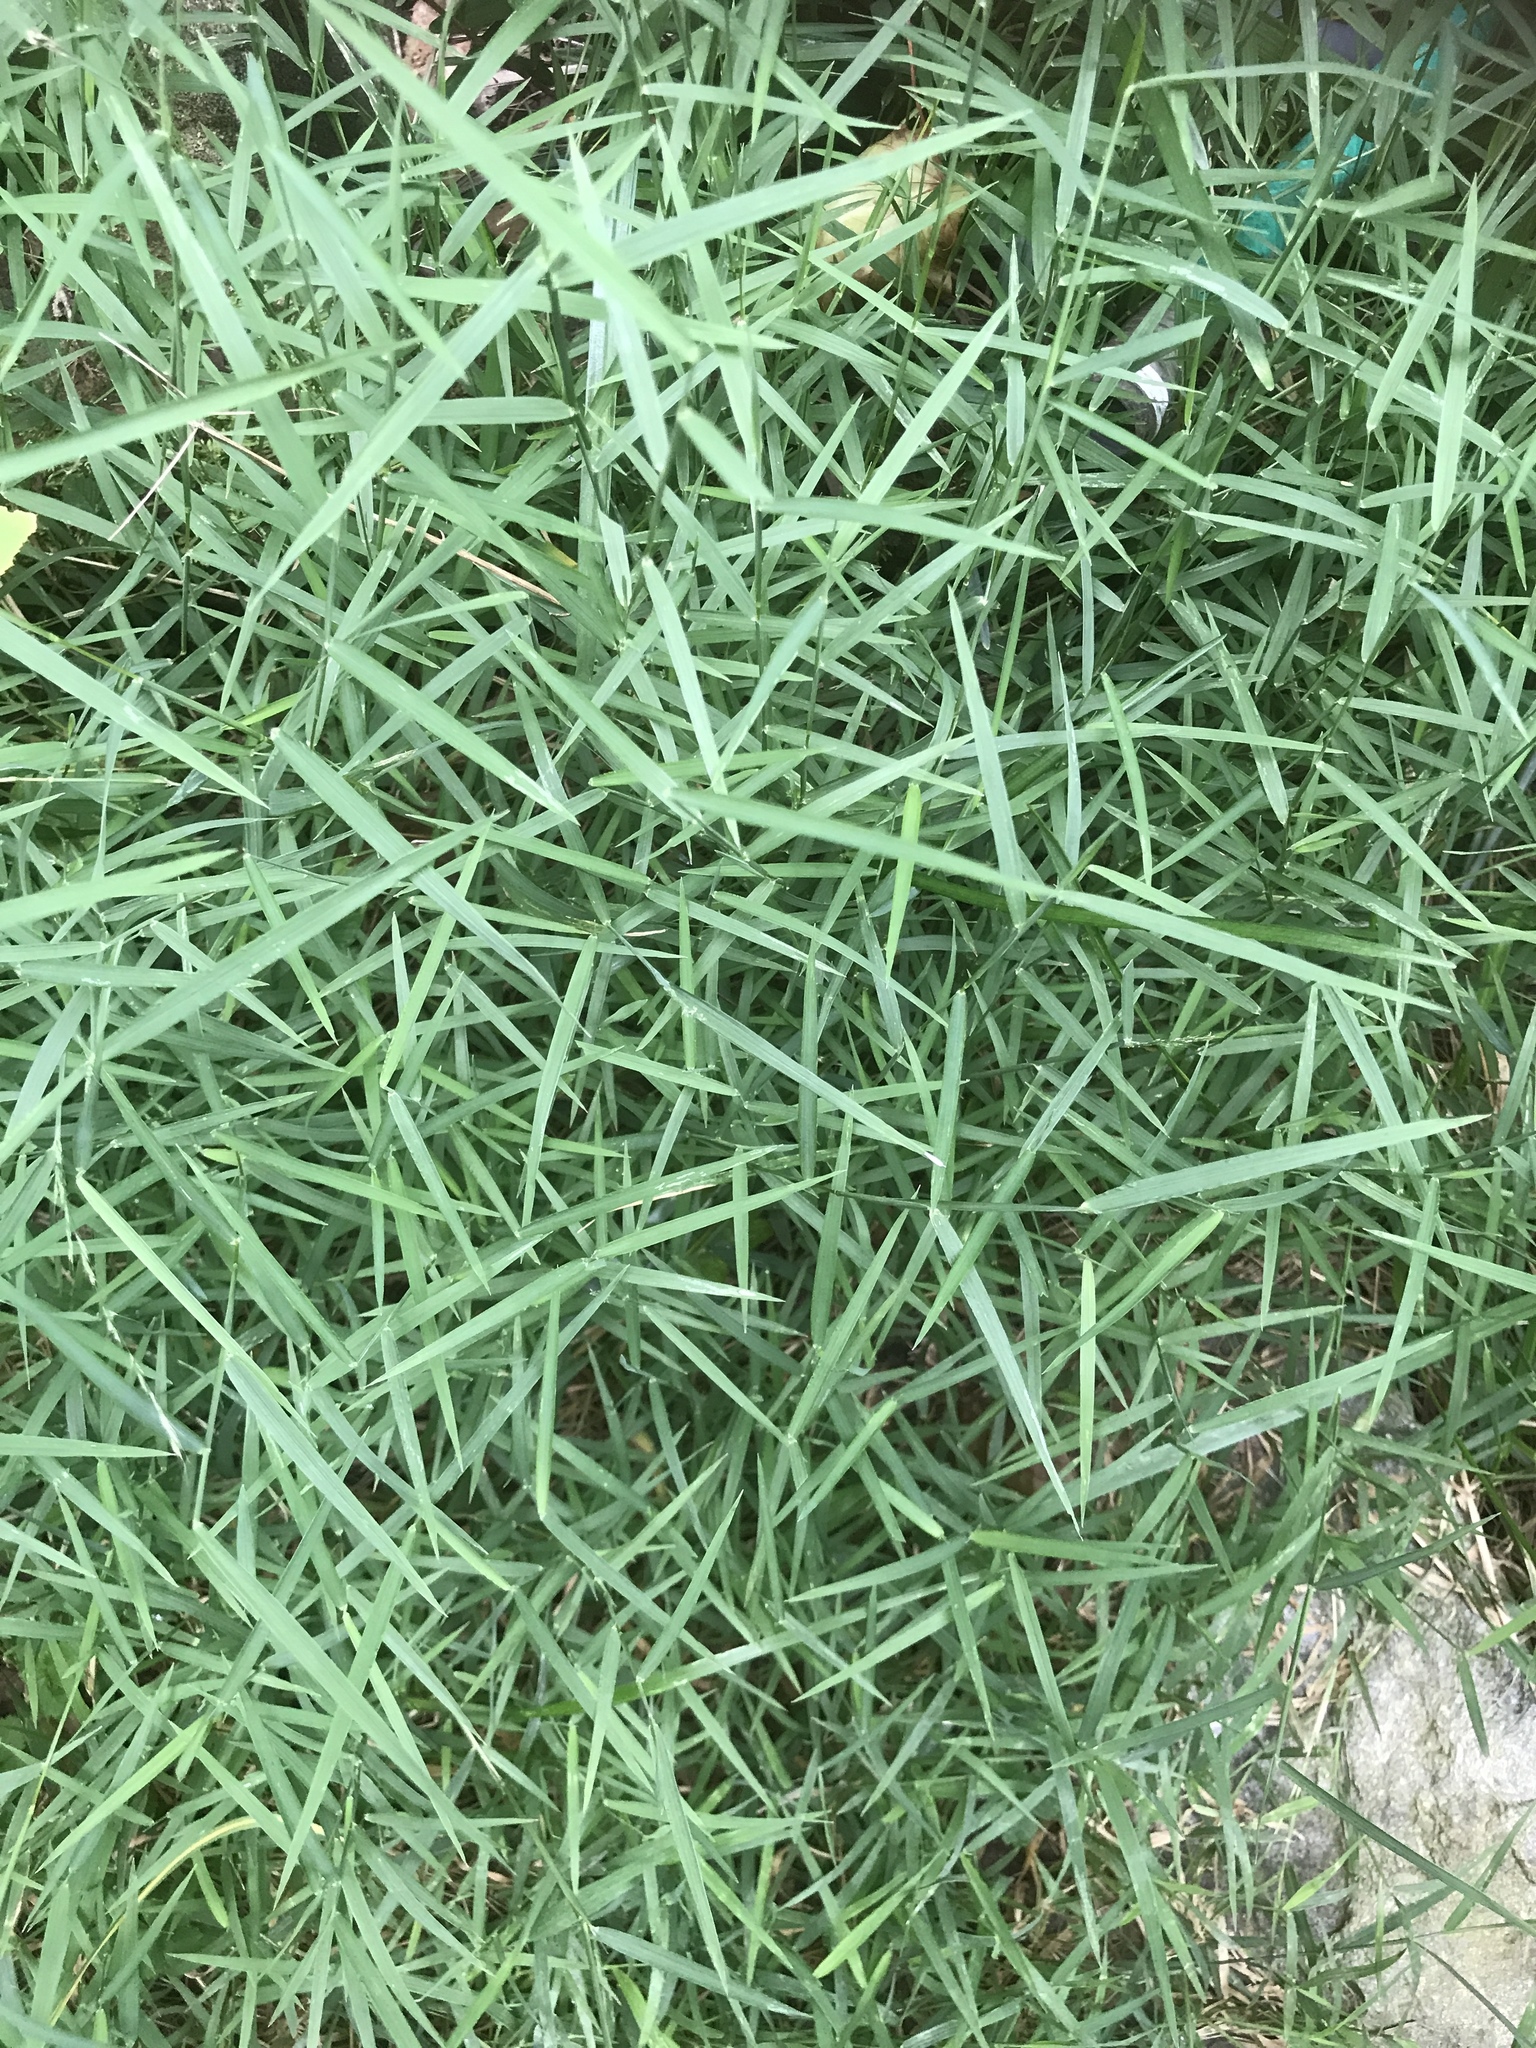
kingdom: Plantae
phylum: Tracheophyta
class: Liliopsida
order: Poales
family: Poaceae
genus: Muhlenbergia
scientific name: Muhlenbergia schreberi
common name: Nimblewill
